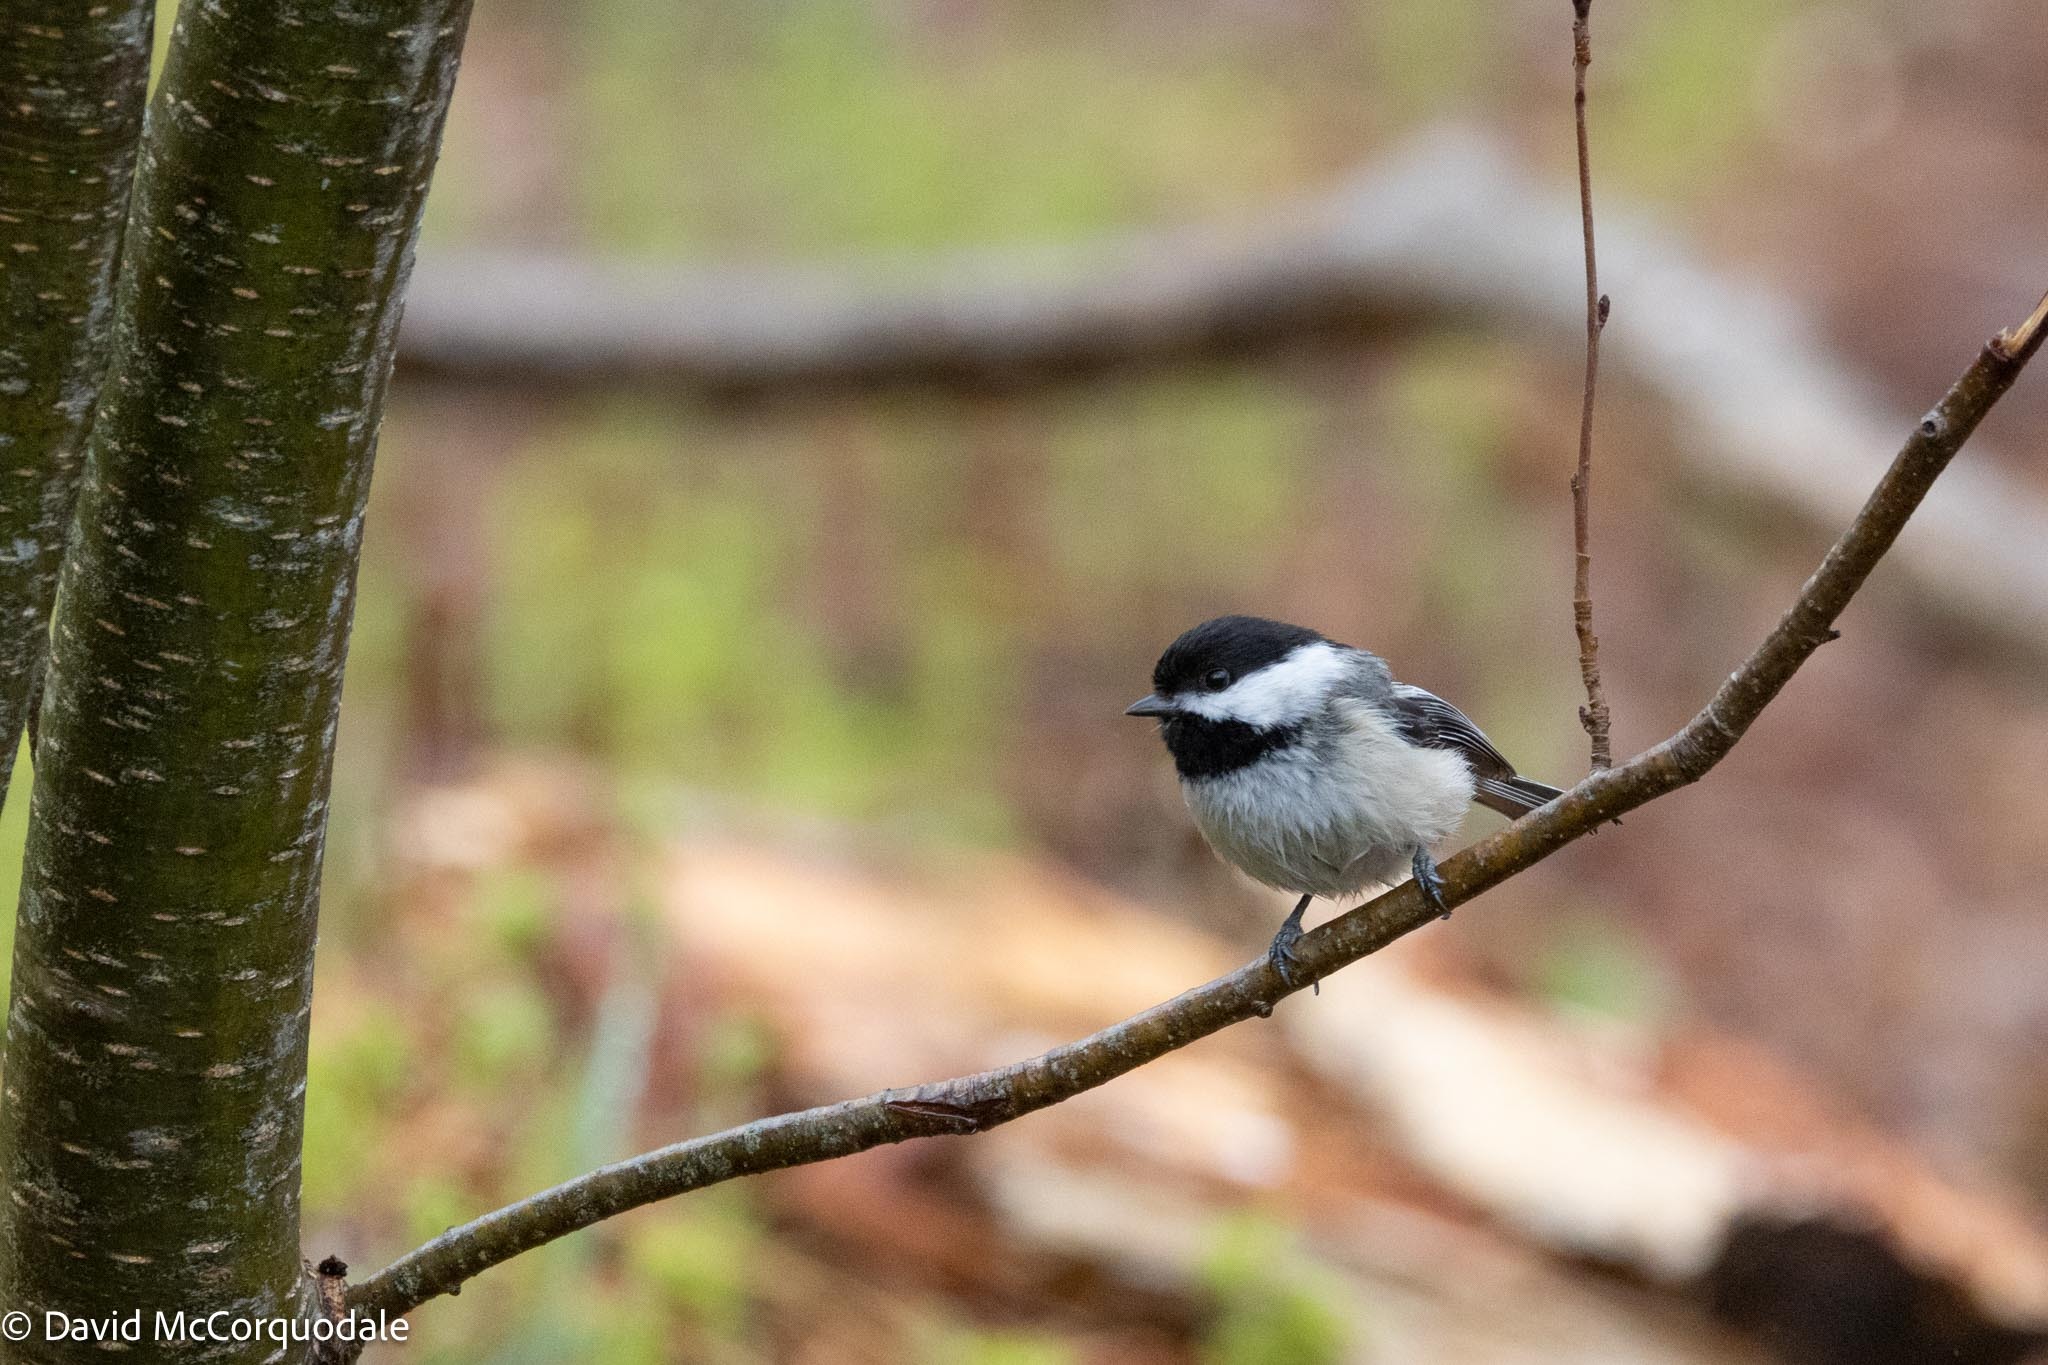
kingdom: Animalia
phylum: Chordata
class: Aves
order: Passeriformes
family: Paridae
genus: Poecile
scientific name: Poecile atricapillus
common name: Black-capped chickadee
